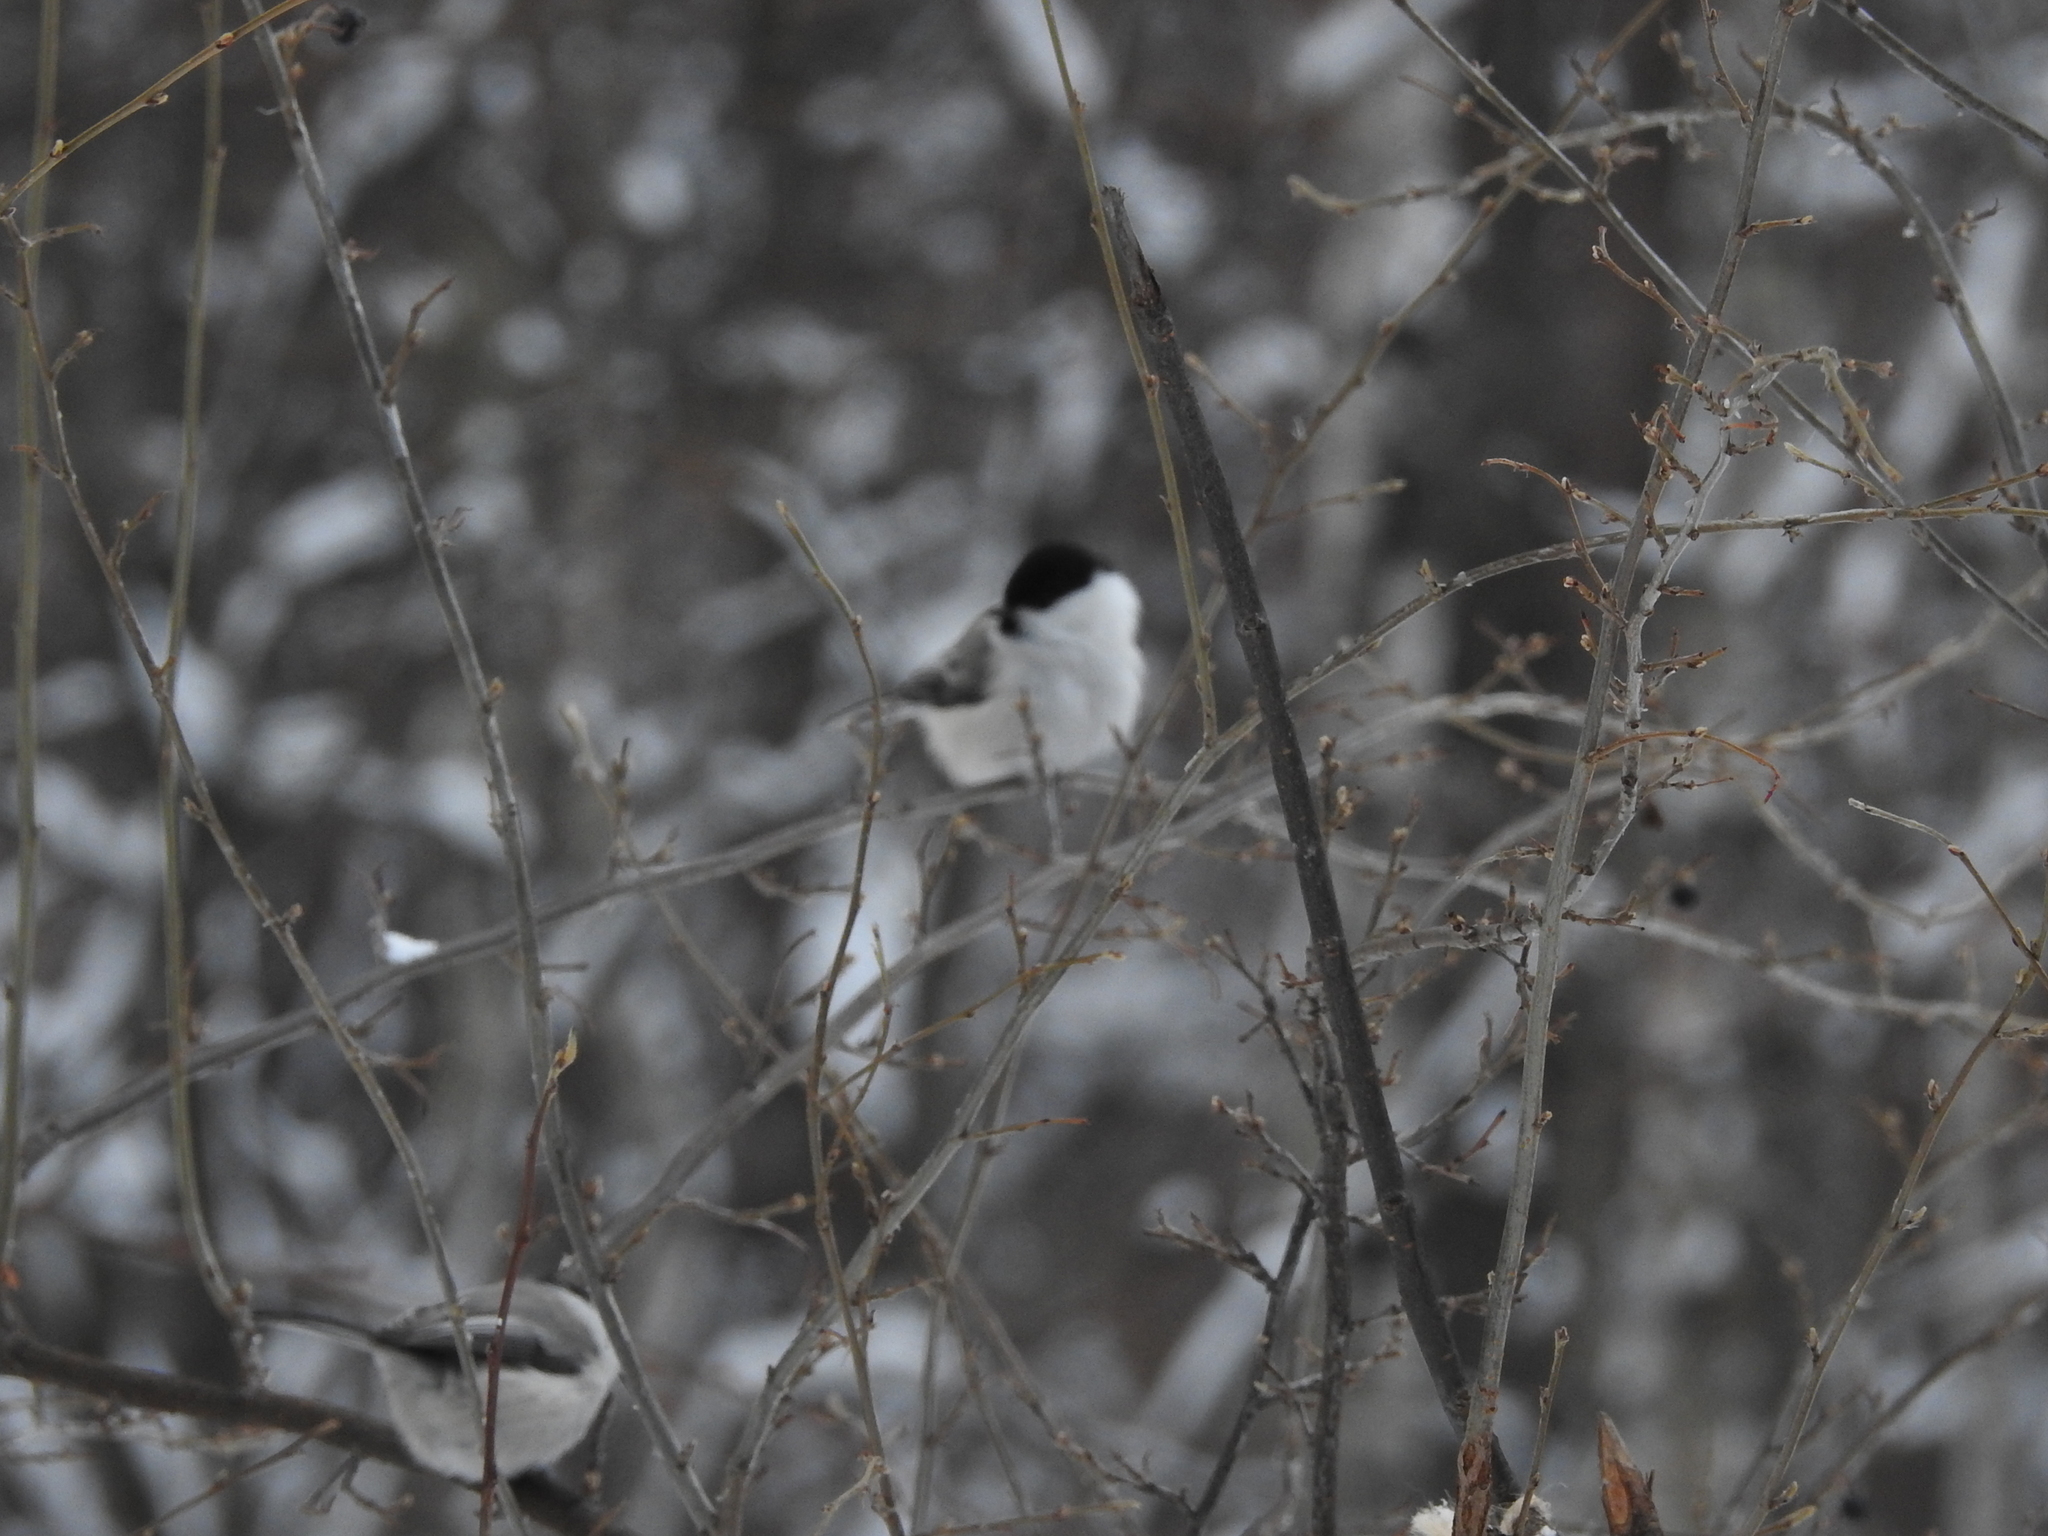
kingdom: Animalia
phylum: Chordata
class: Aves
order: Passeriformes
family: Paridae
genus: Poecile
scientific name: Poecile montanus
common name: Willow tit
